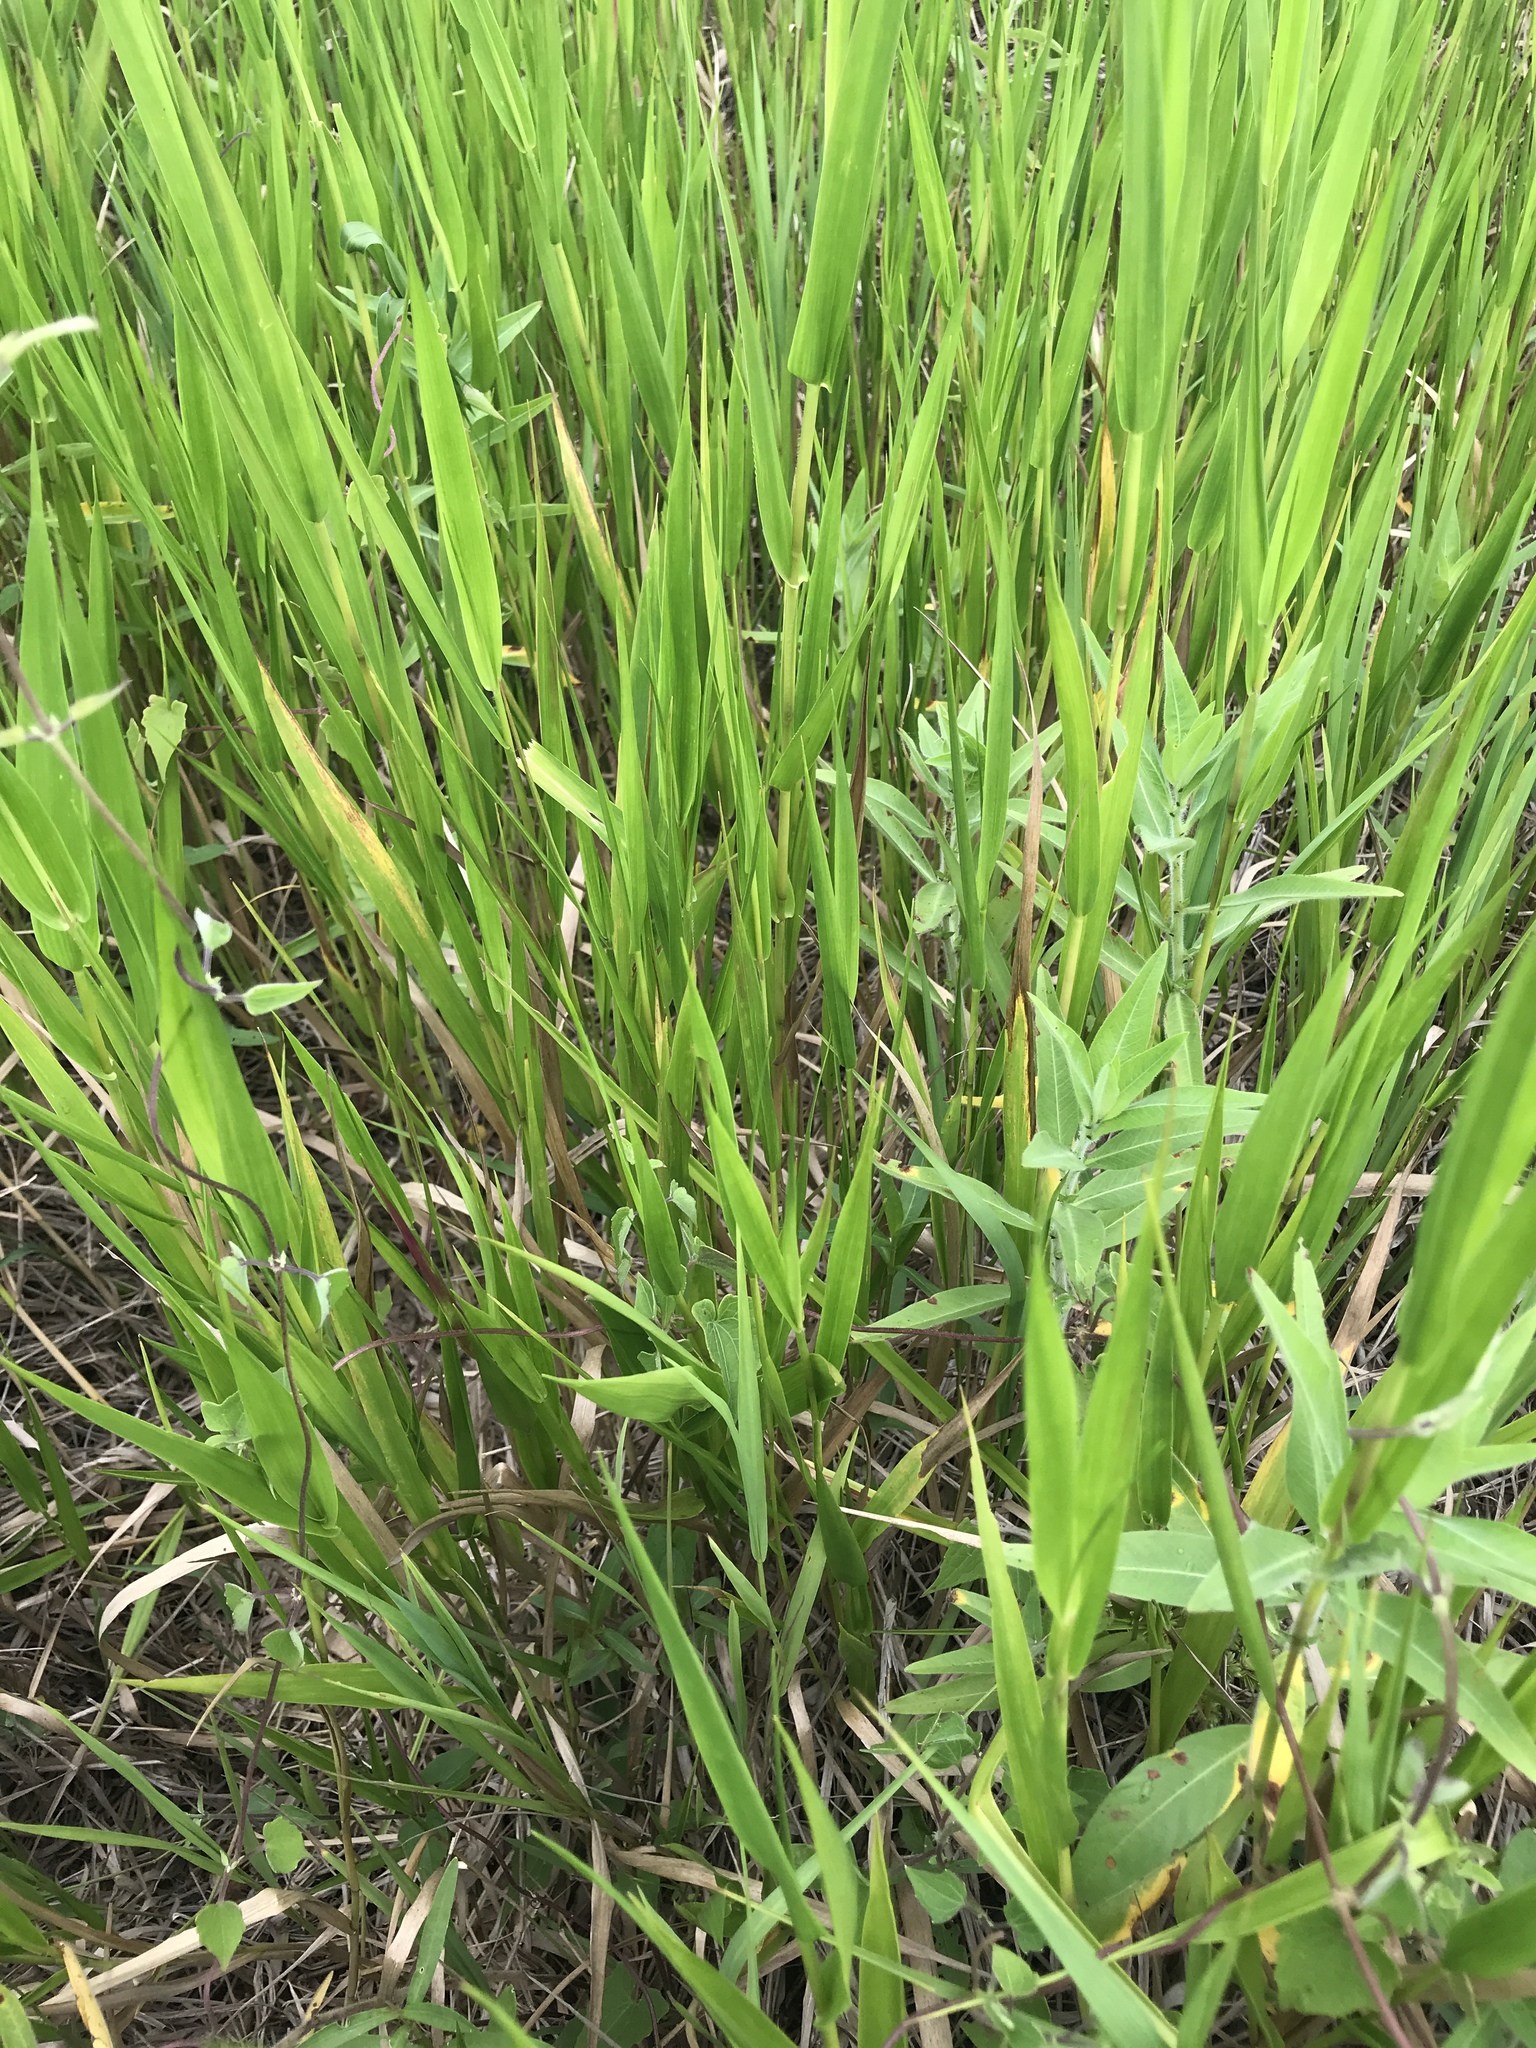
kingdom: Plantae
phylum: Tracheophyta
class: Liliopsida
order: Poales
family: Poaceae
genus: Panicum
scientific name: Panicum hemitomon
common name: Maidencane
